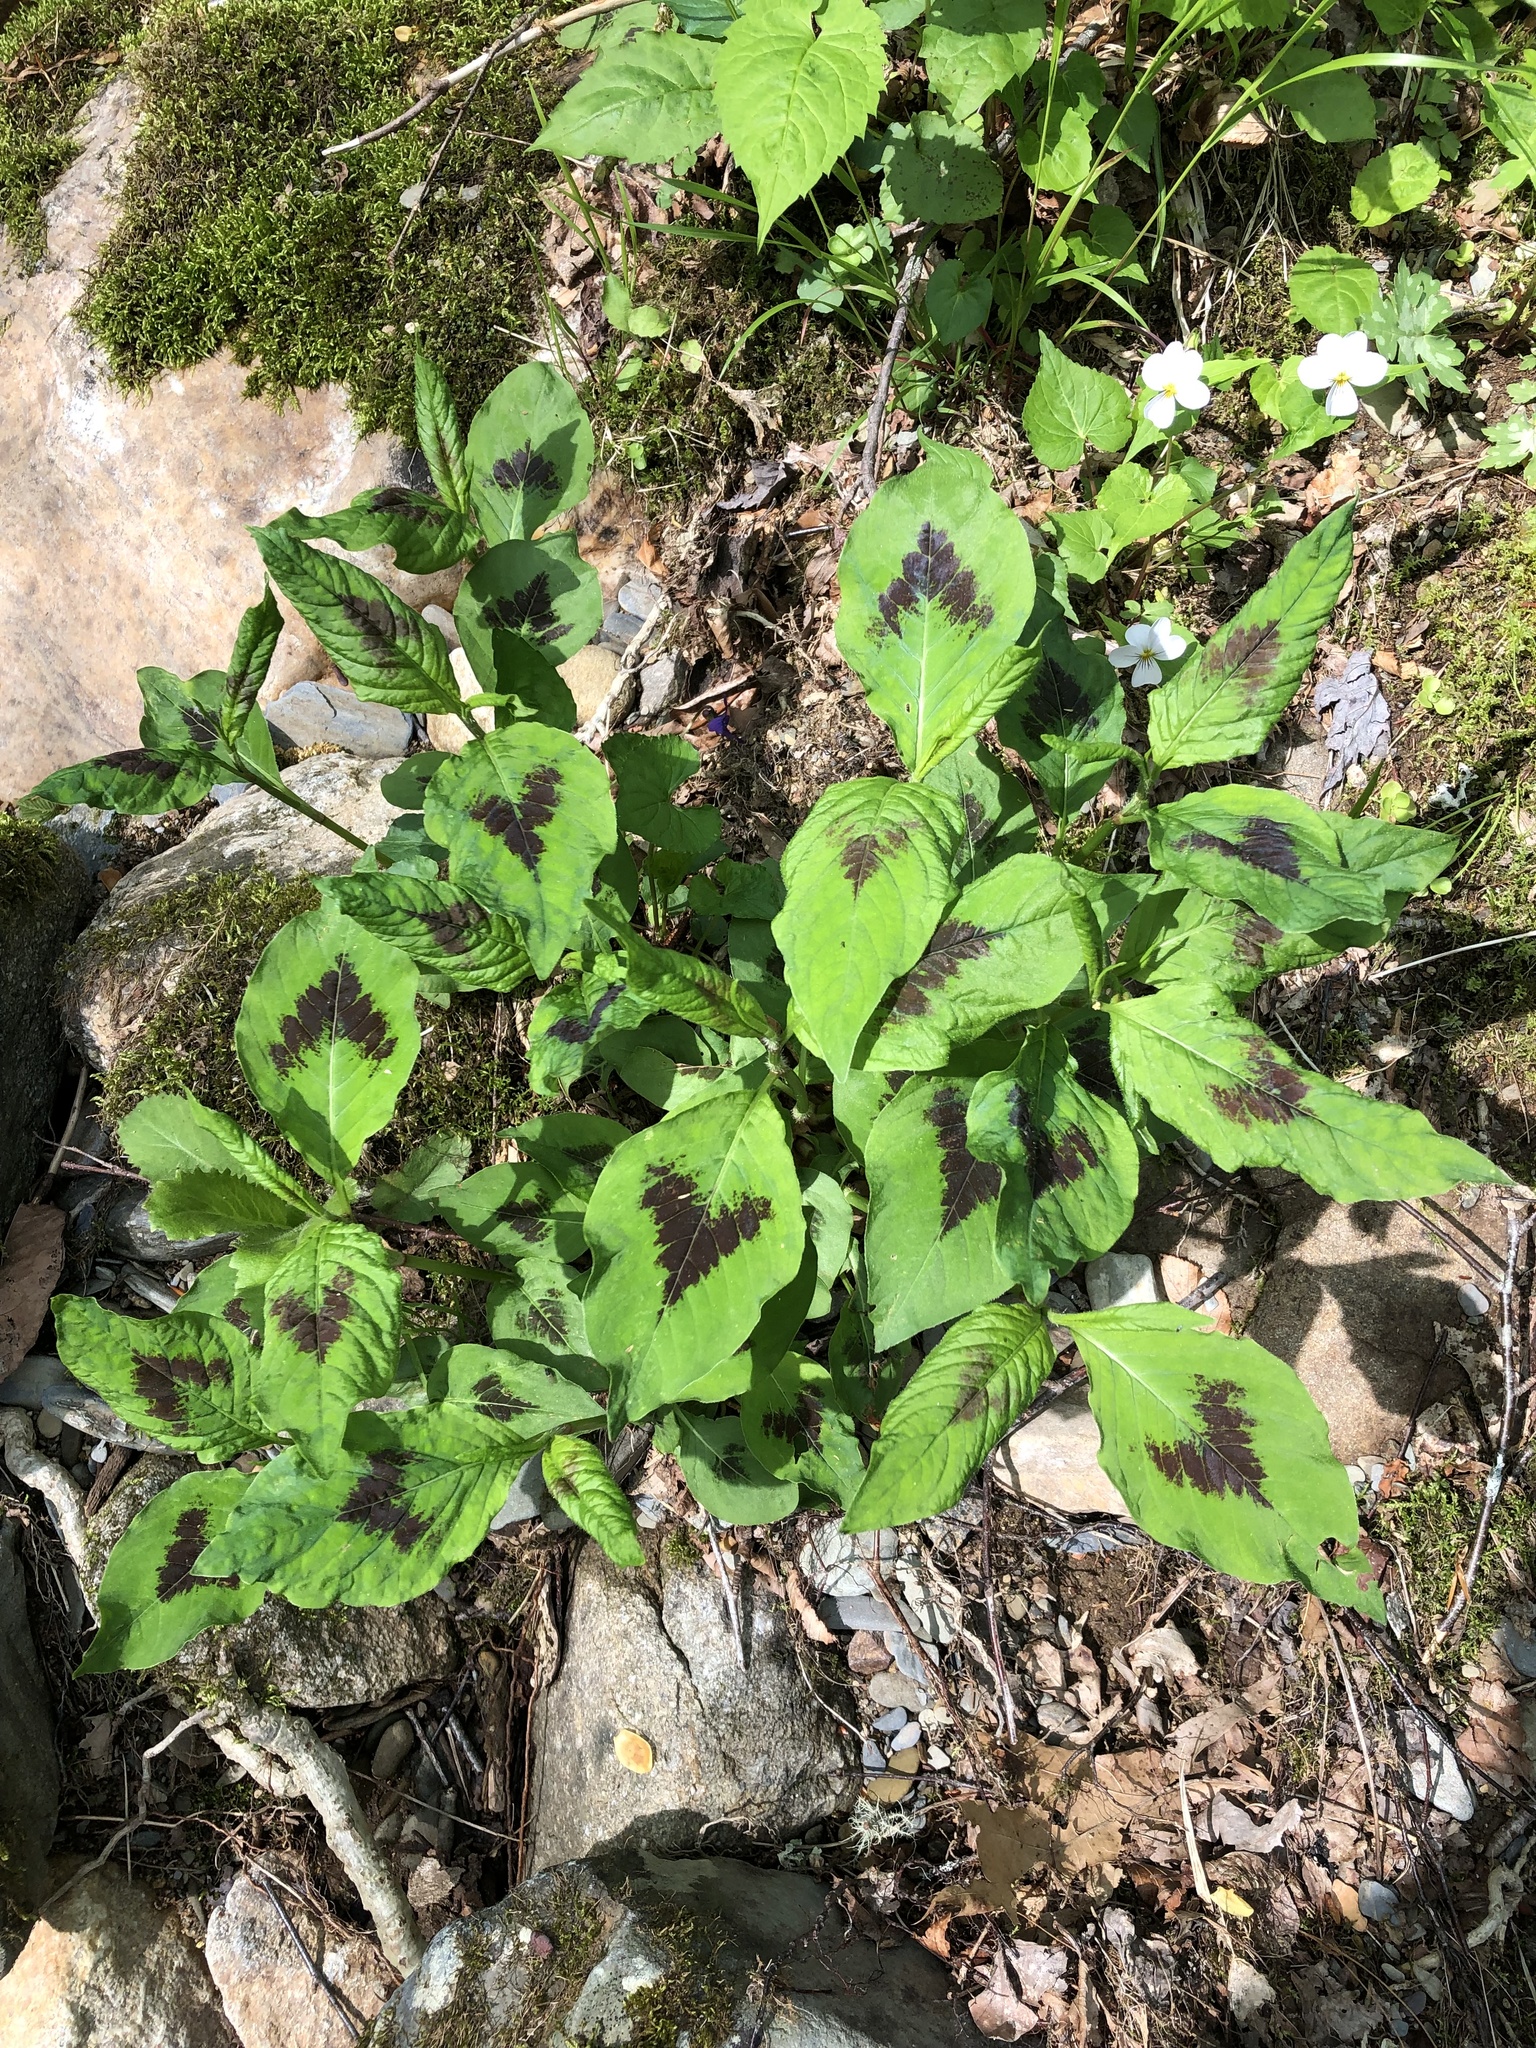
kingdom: Plantae
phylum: Tracheophyta
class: Magnoliopsida
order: Caryophyllales
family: Polygonaceae
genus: Persicaria
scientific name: Persicaria virginiana
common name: Jumpseed
